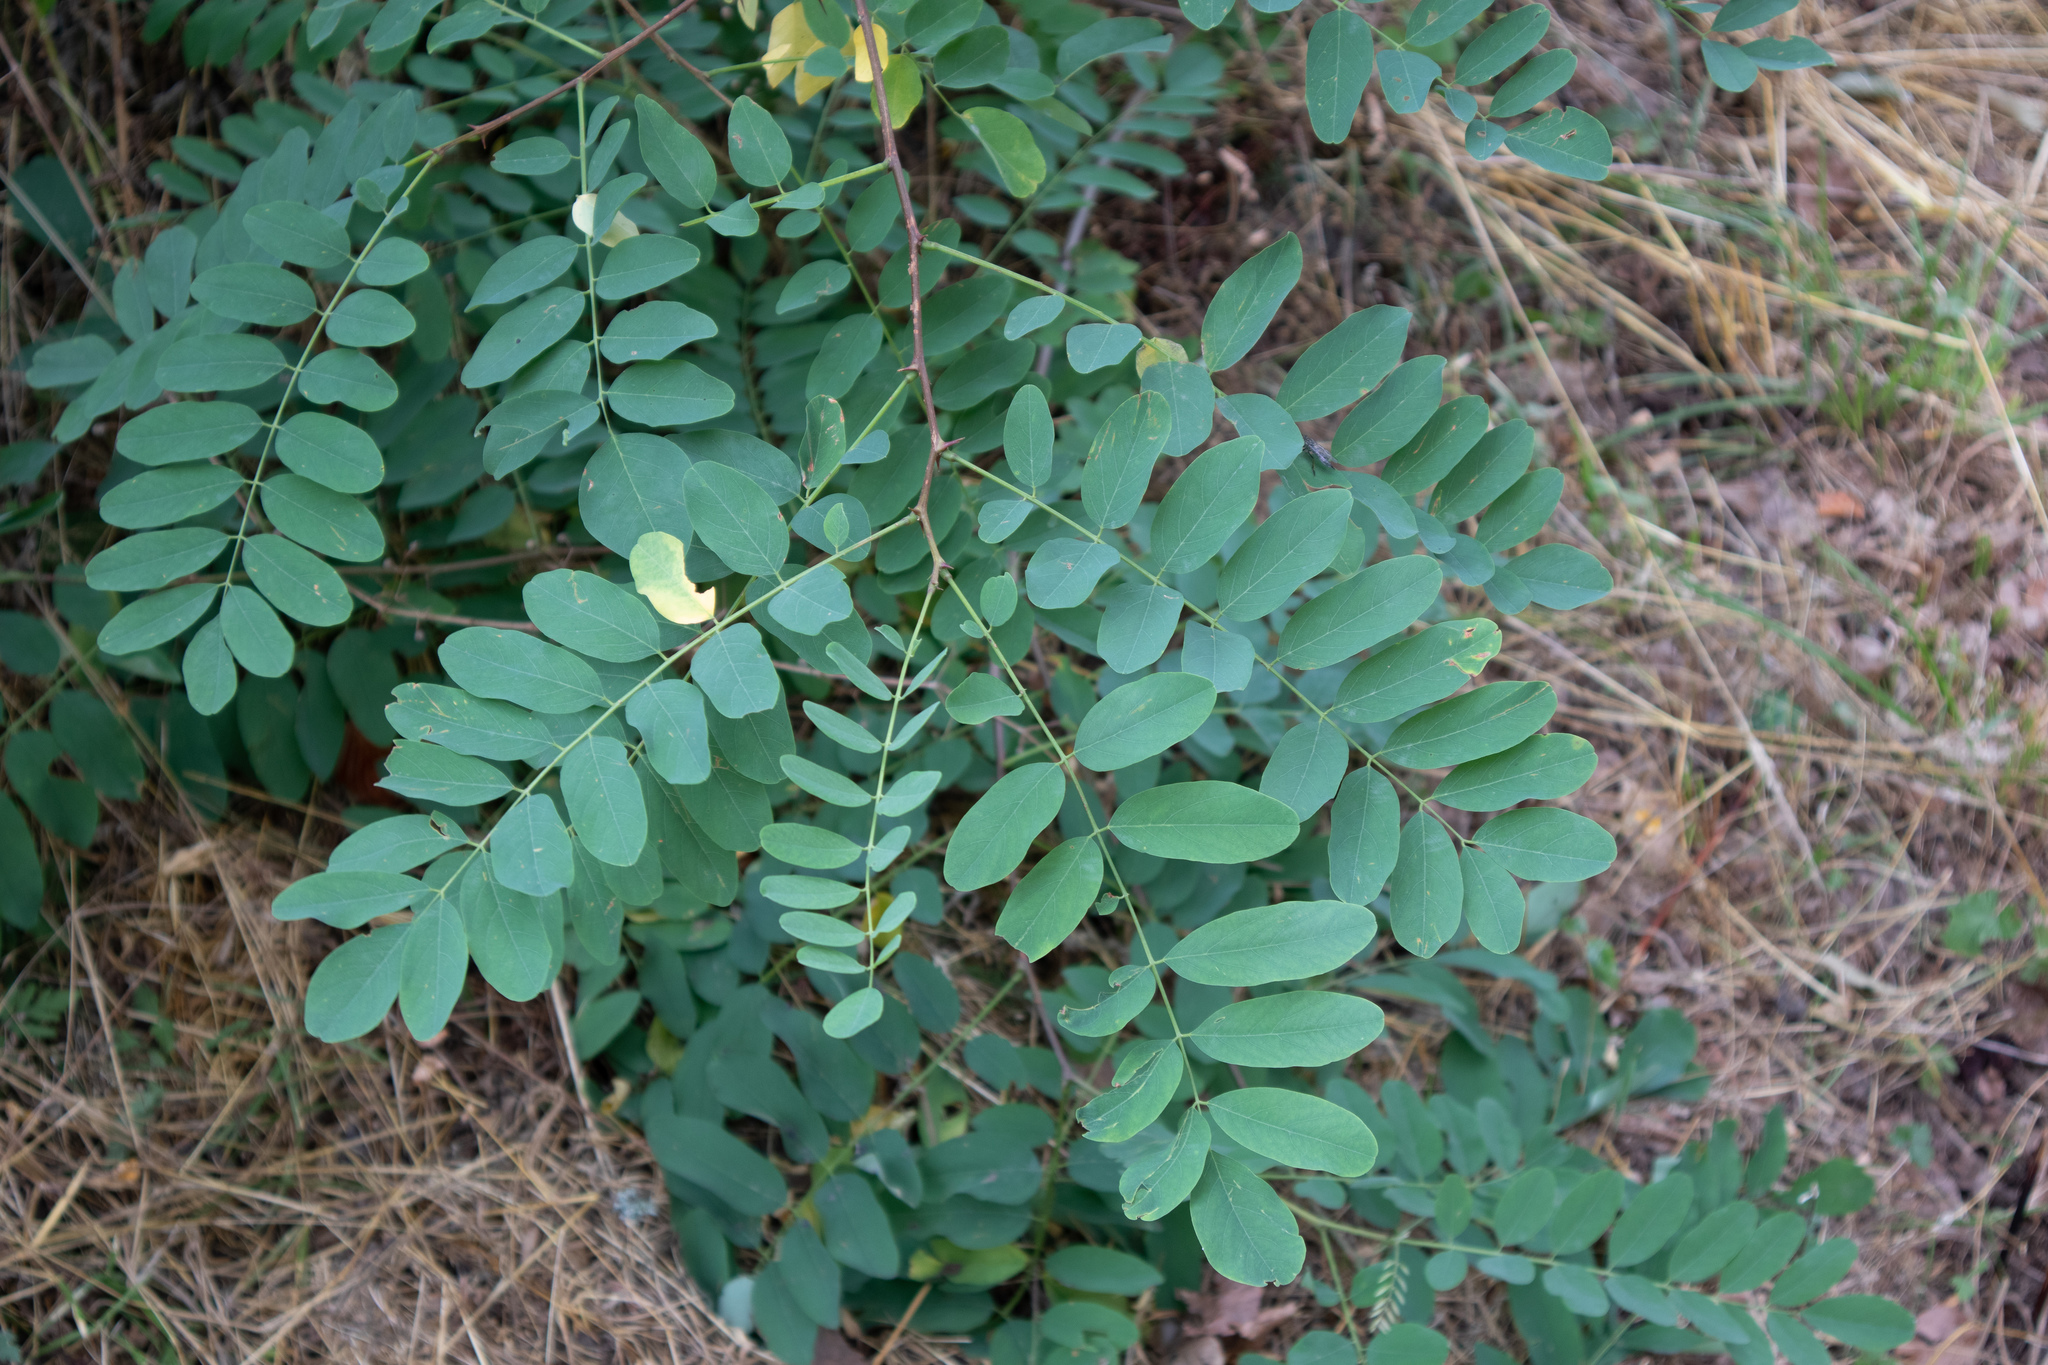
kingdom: Plantae
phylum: Tracheophyta
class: Magnoliopsida
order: Fabales
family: Fabaceae
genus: Robinia
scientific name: Robinia pseudoacacia
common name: Black locust
